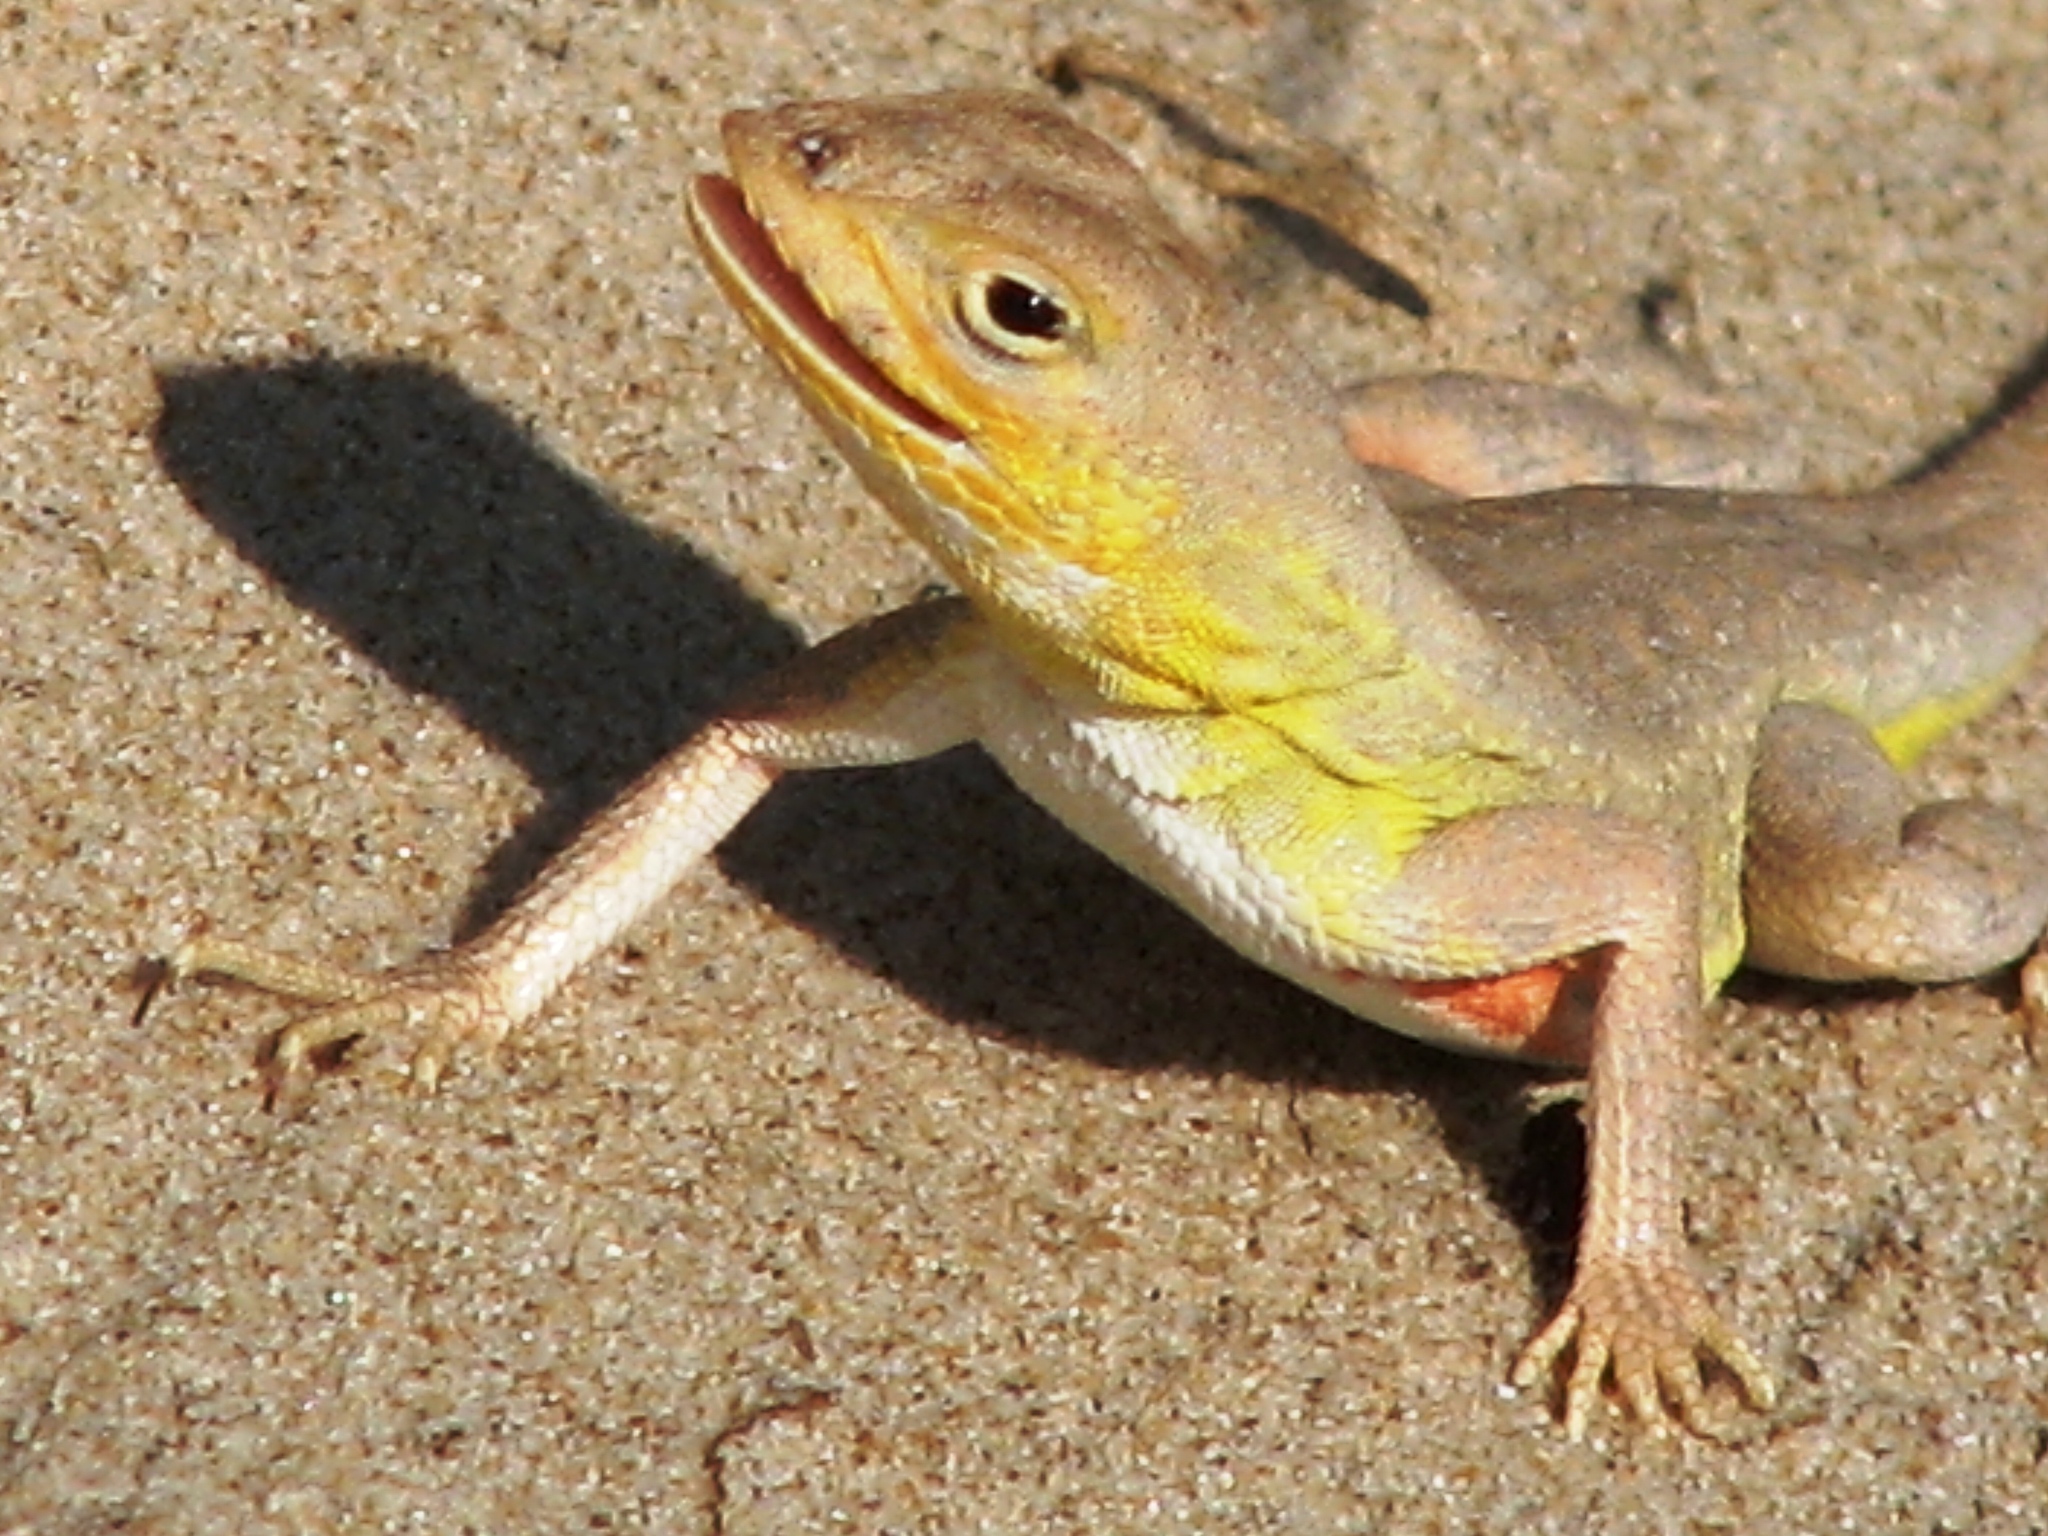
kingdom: Animalia
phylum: Chordata
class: Squamata
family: Phrynosomatidae
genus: Holbrookia
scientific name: Holbrookia propinqua
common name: Keeled earless lizard
